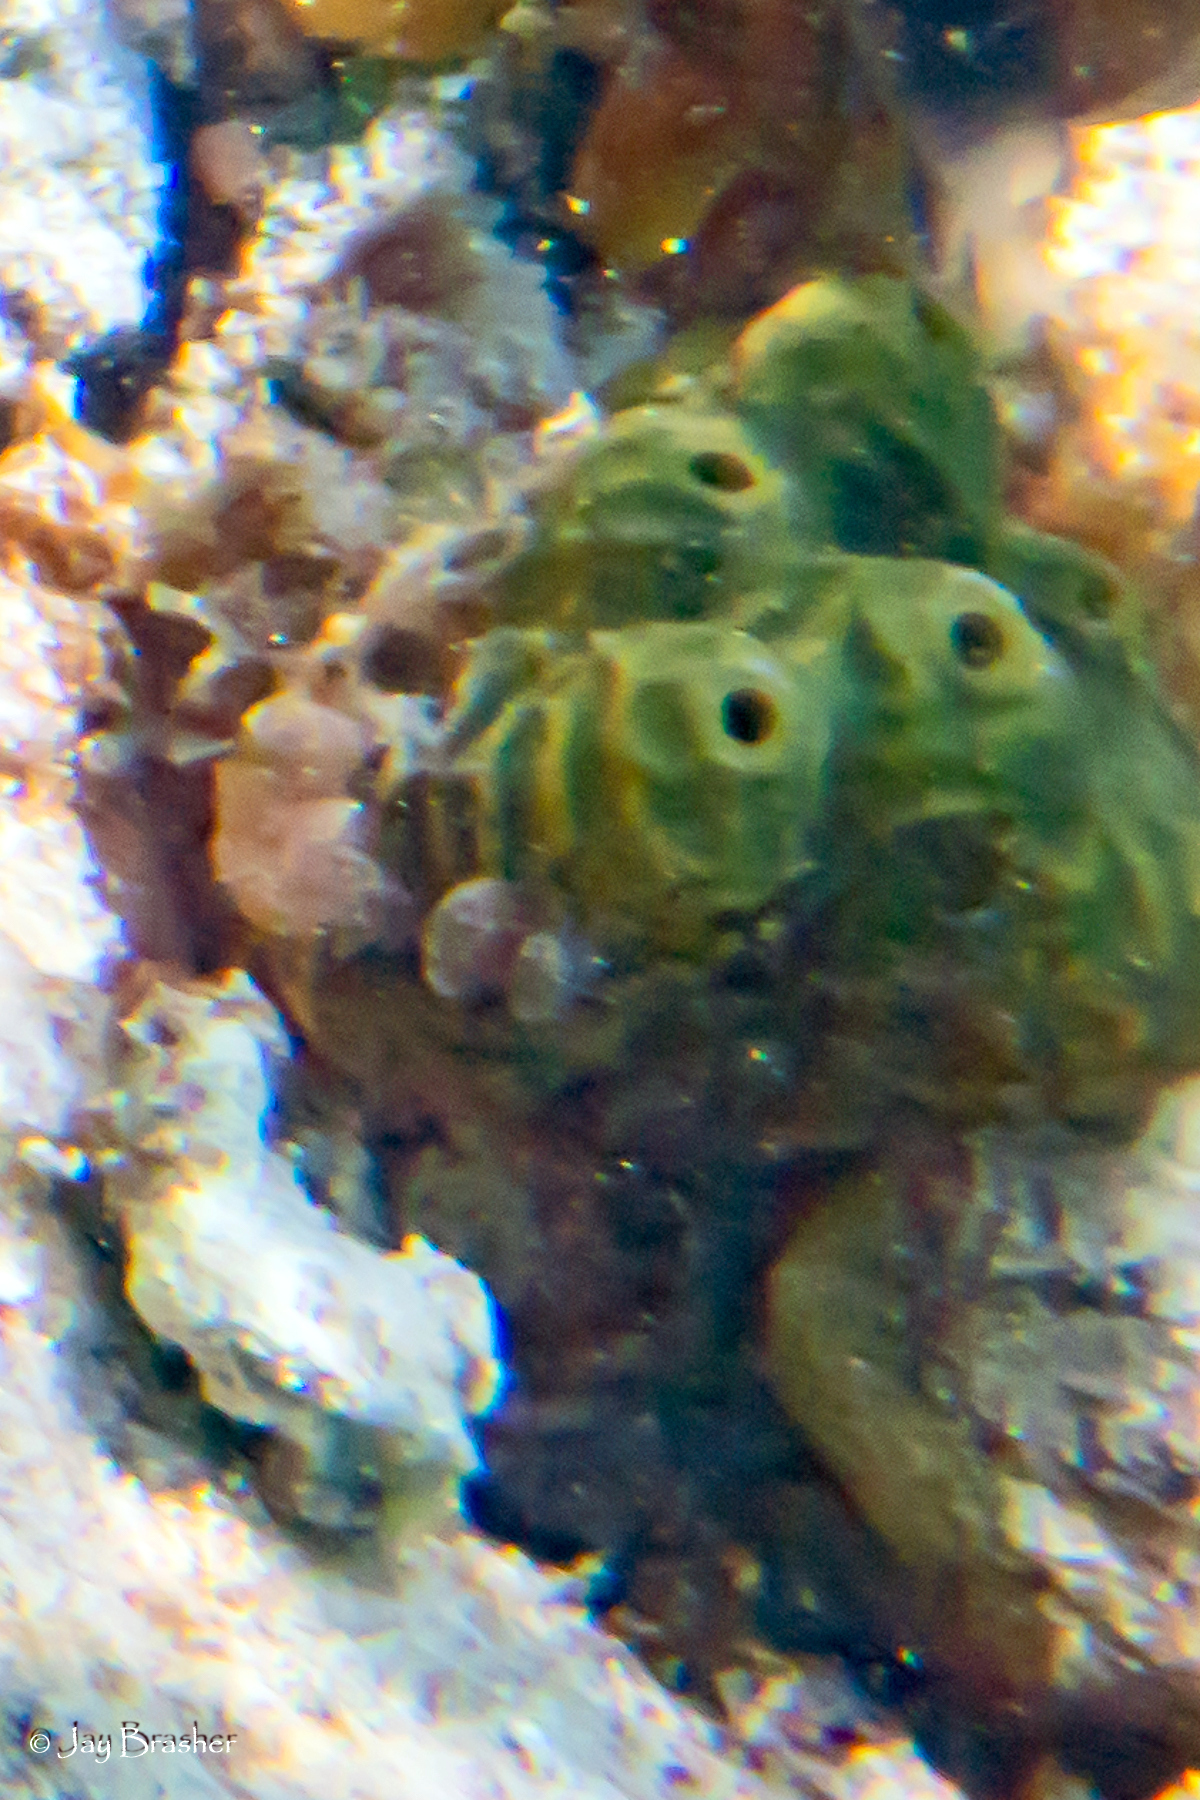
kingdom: Animalia
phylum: Porifera
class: Demospongiae
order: Verongiida
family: Aplysinidae
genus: Verongula
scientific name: Verongula rigida
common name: Pitted sponge
